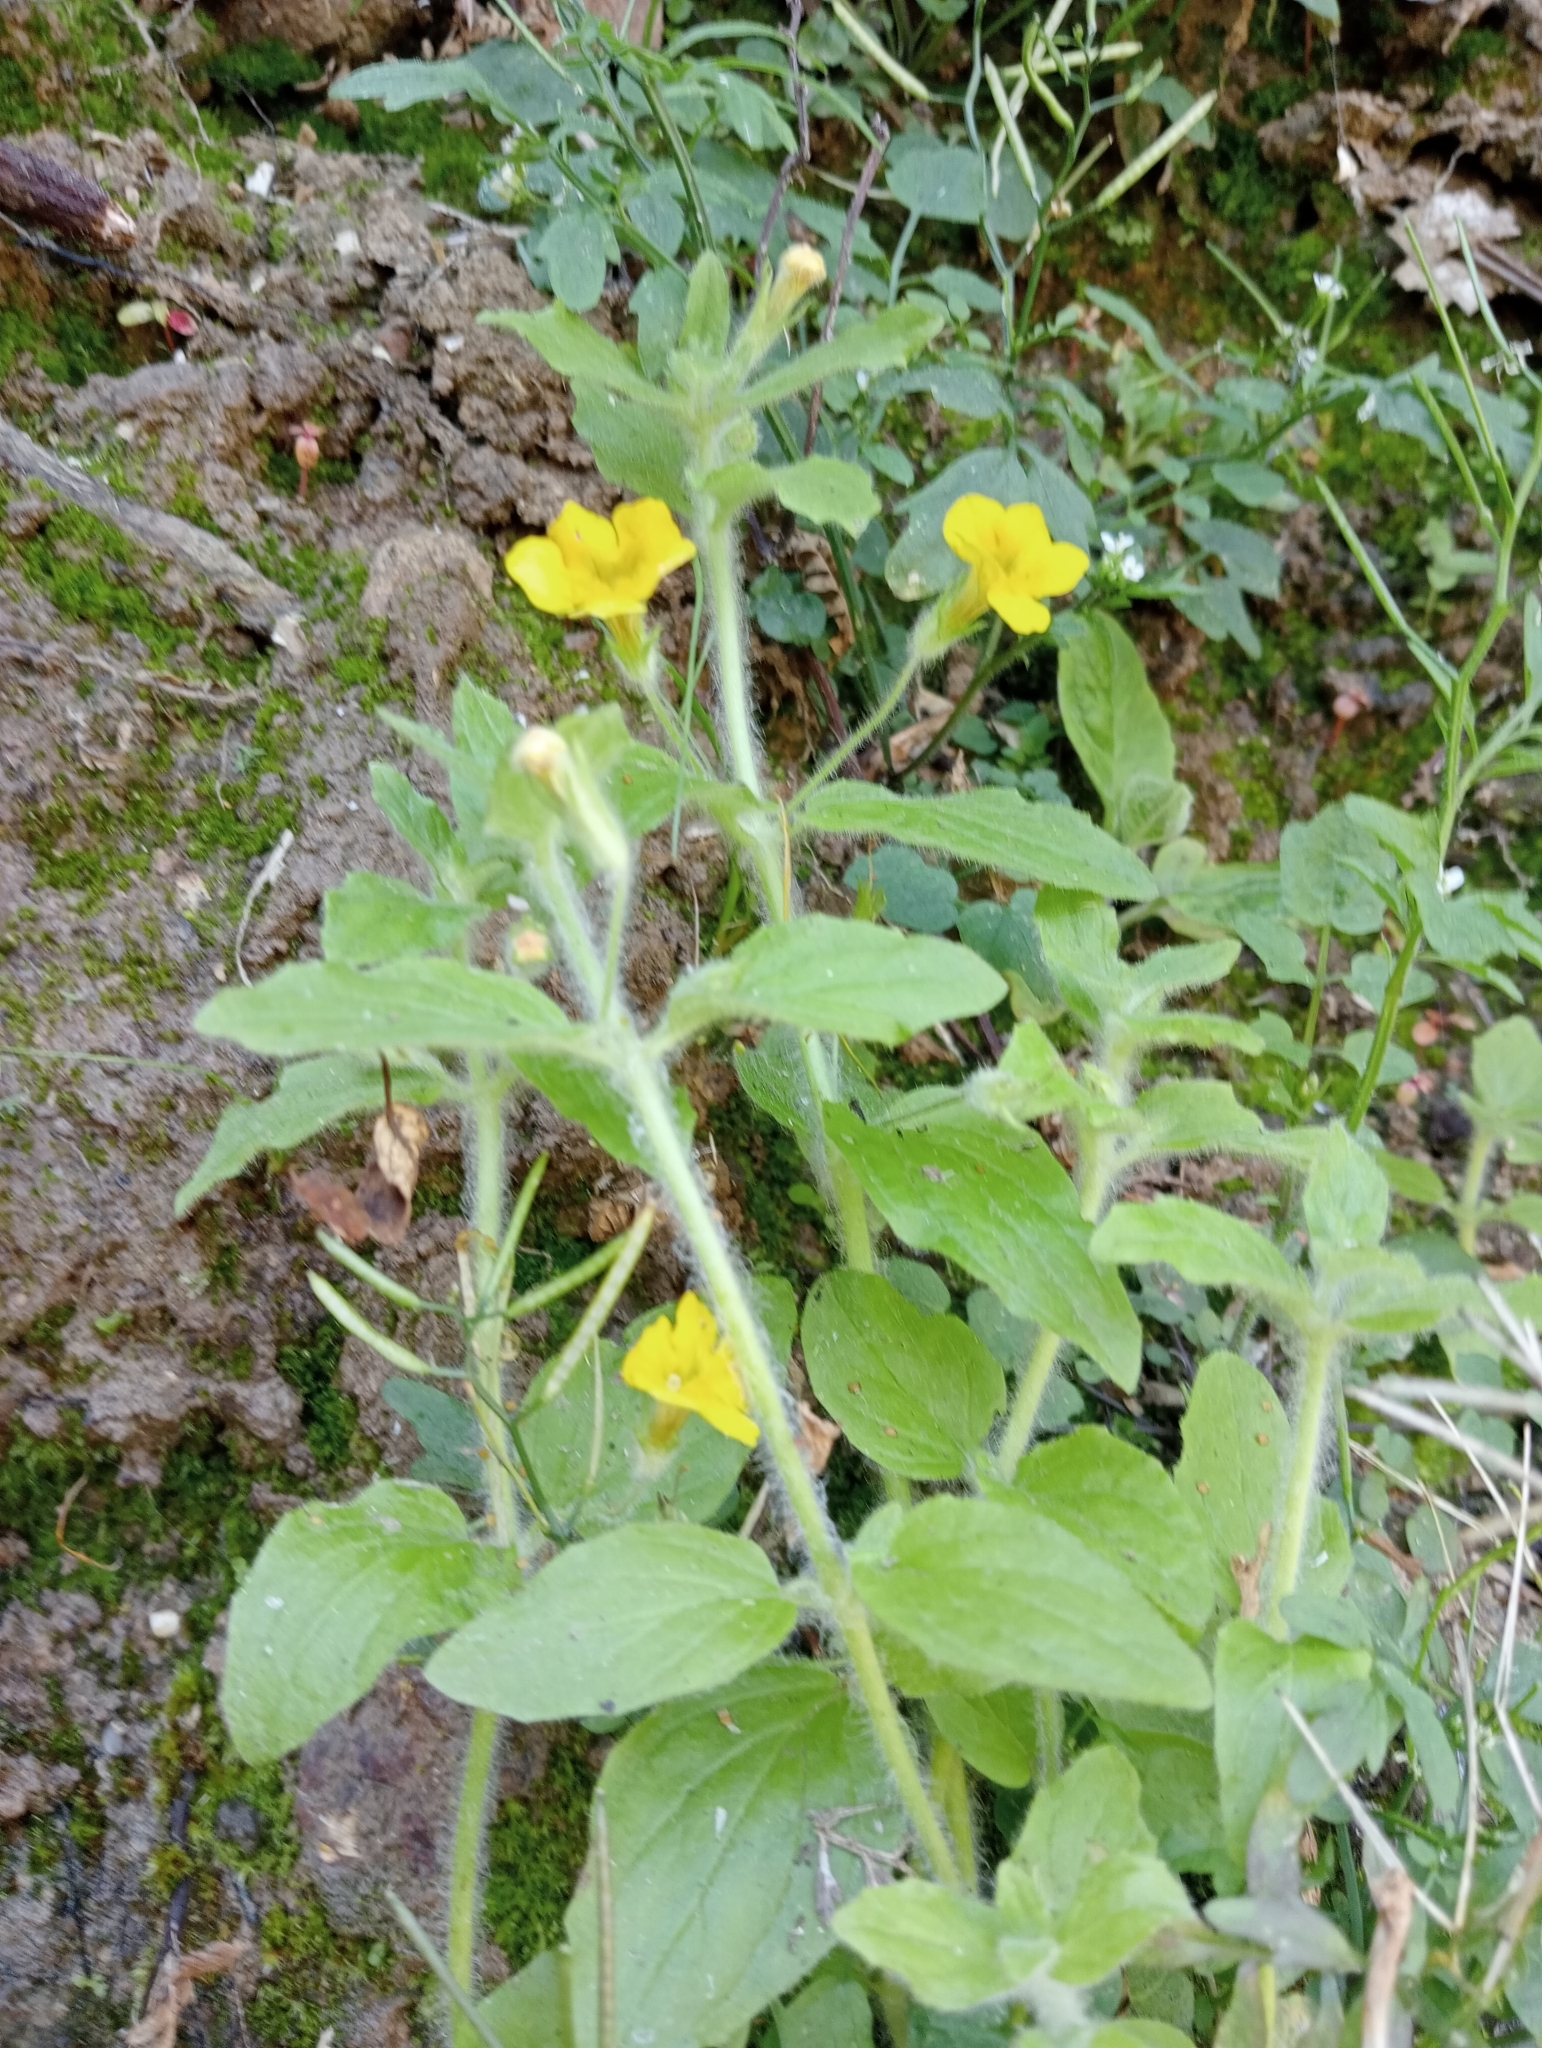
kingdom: Plantae
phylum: Tracheophyta
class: Magnoliopsida
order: Lamiales
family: Phrymaceae
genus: Erythranthe
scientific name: Erythranthe moschata
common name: Muskflower
